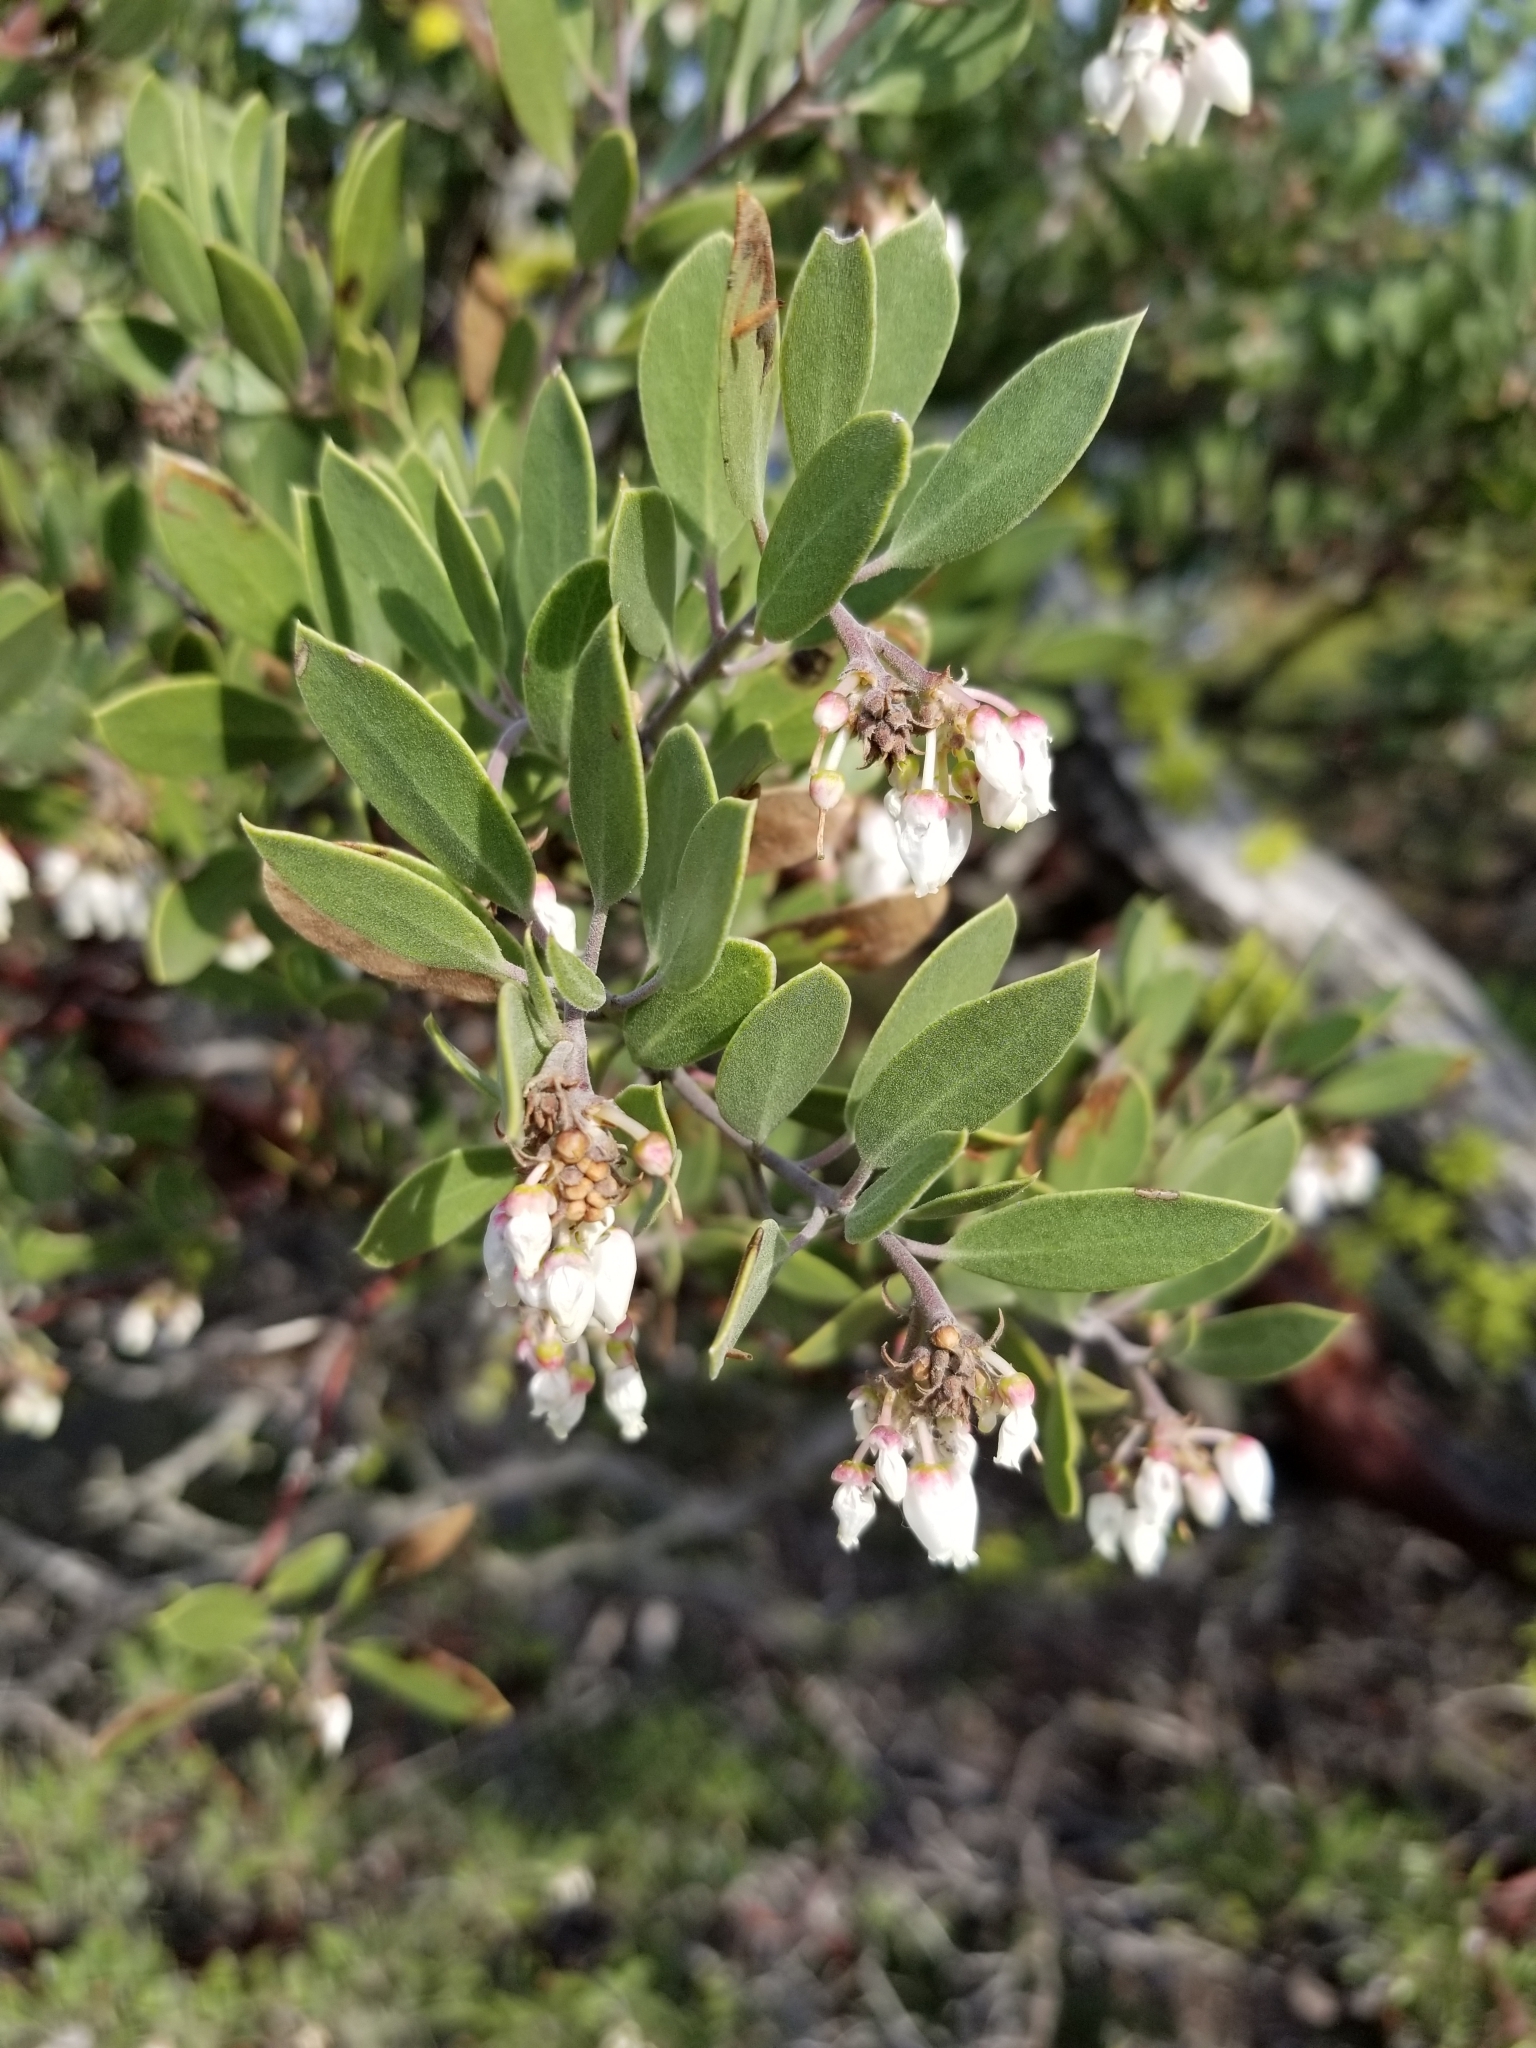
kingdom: Plantae
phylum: Tracheophyta
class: Magnoliopsida
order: Ericales
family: Ericaceae
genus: Arctostaphylos
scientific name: Arctostaphylos pungens
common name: Mexican manzanita
